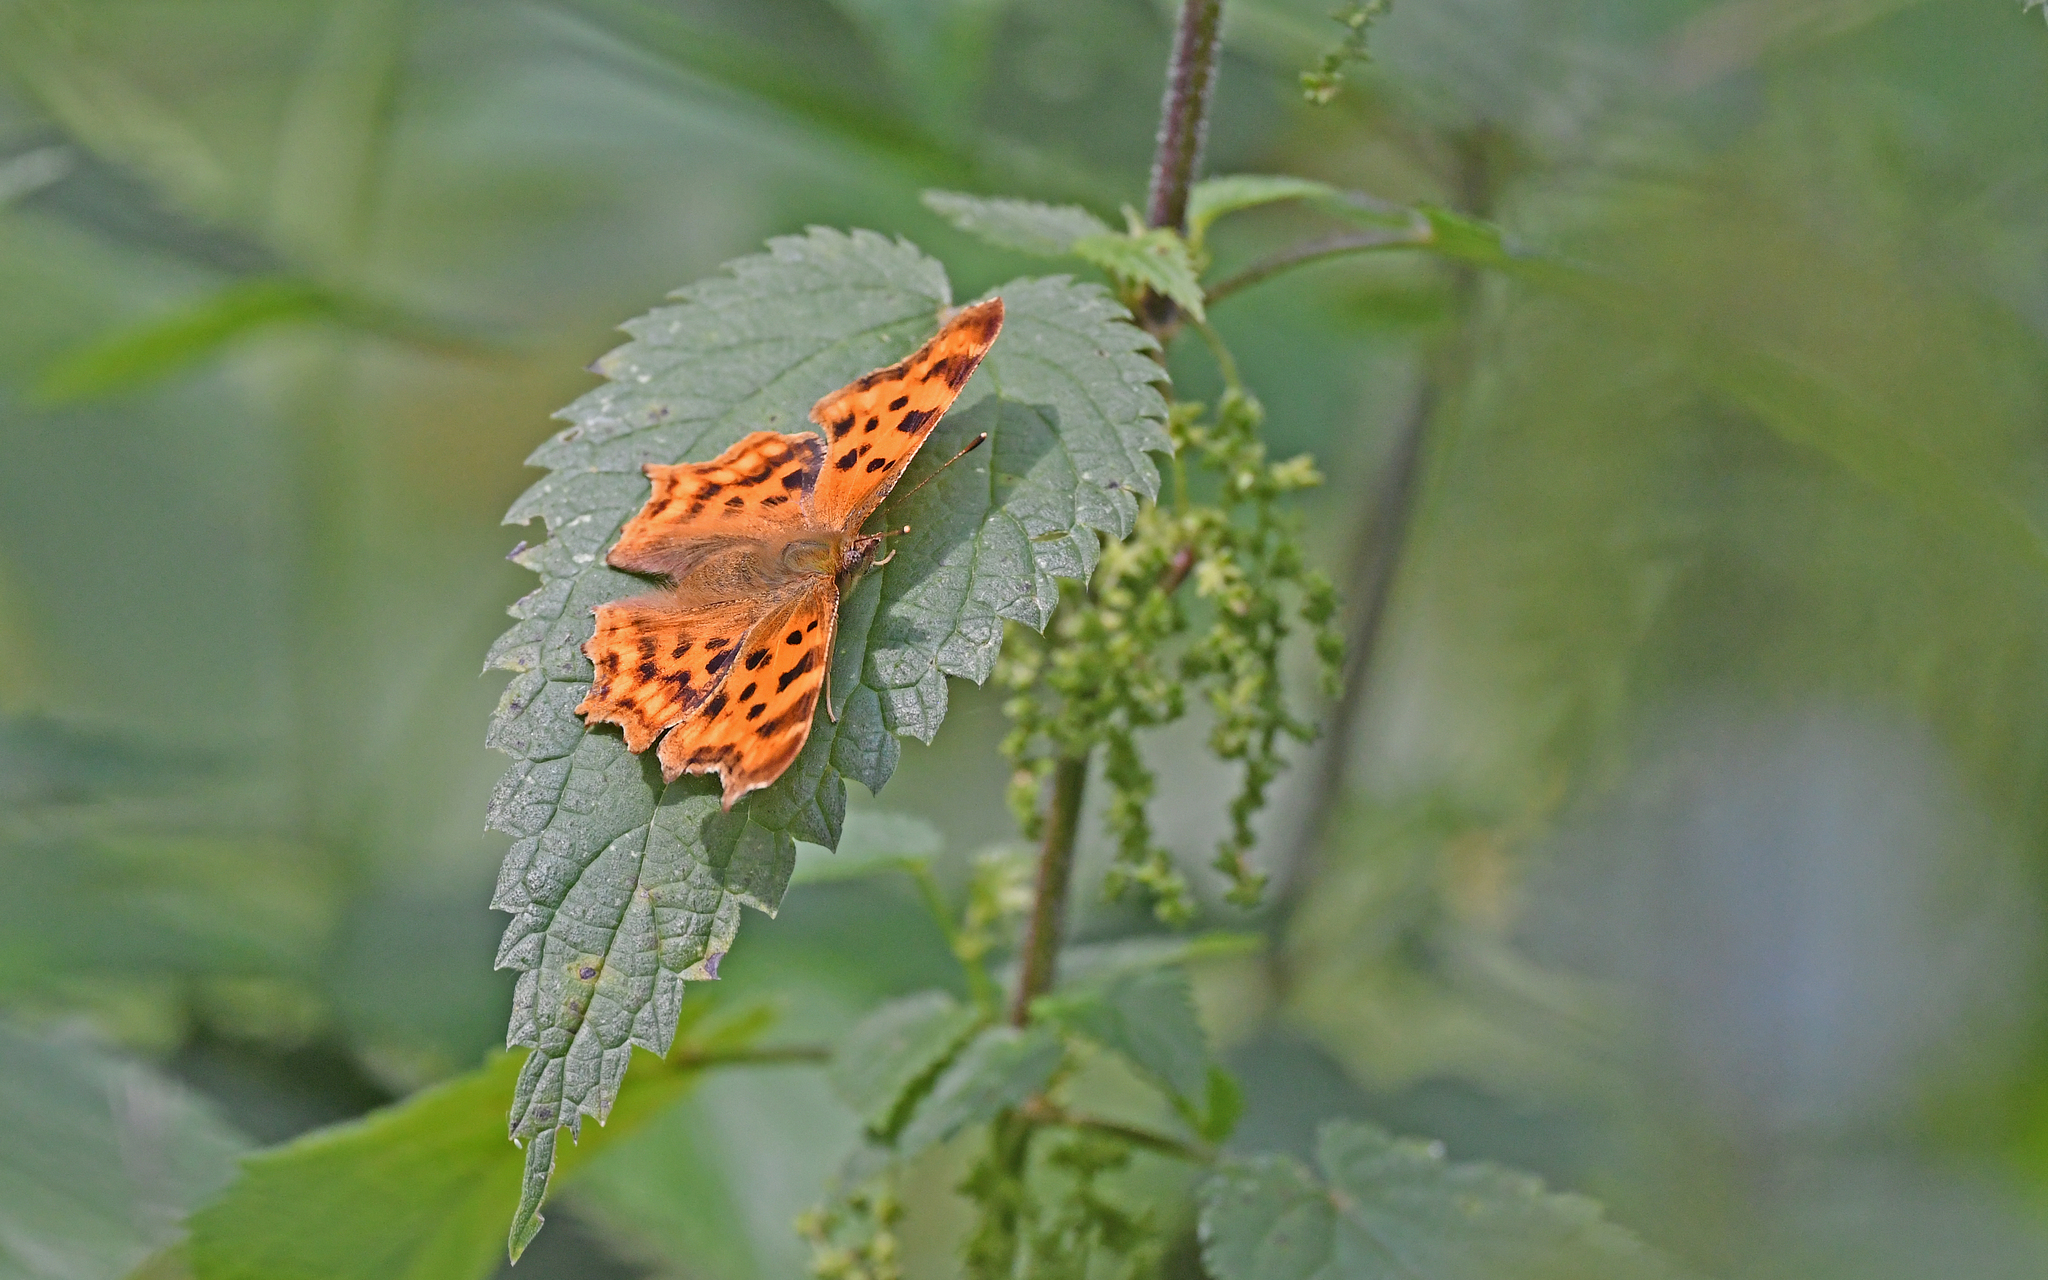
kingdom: Animalia
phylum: Arthropoda
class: Insecta
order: Lepidoptera
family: Nymphalidae
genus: Polygonia
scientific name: Polygonia c-album
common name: Comma
